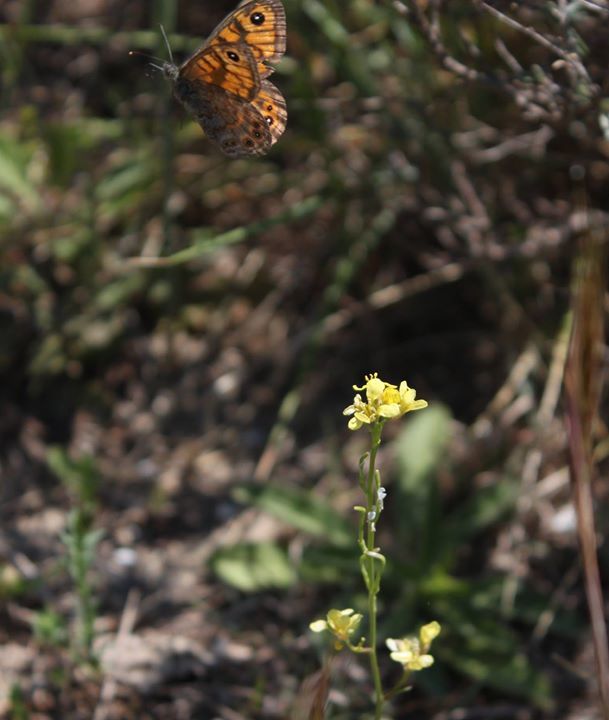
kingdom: Animalia
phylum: Arthropoda
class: Insecta
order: Lepidoptera
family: Nymphalidae
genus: Pararge
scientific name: Pararge Lasiommata megera
